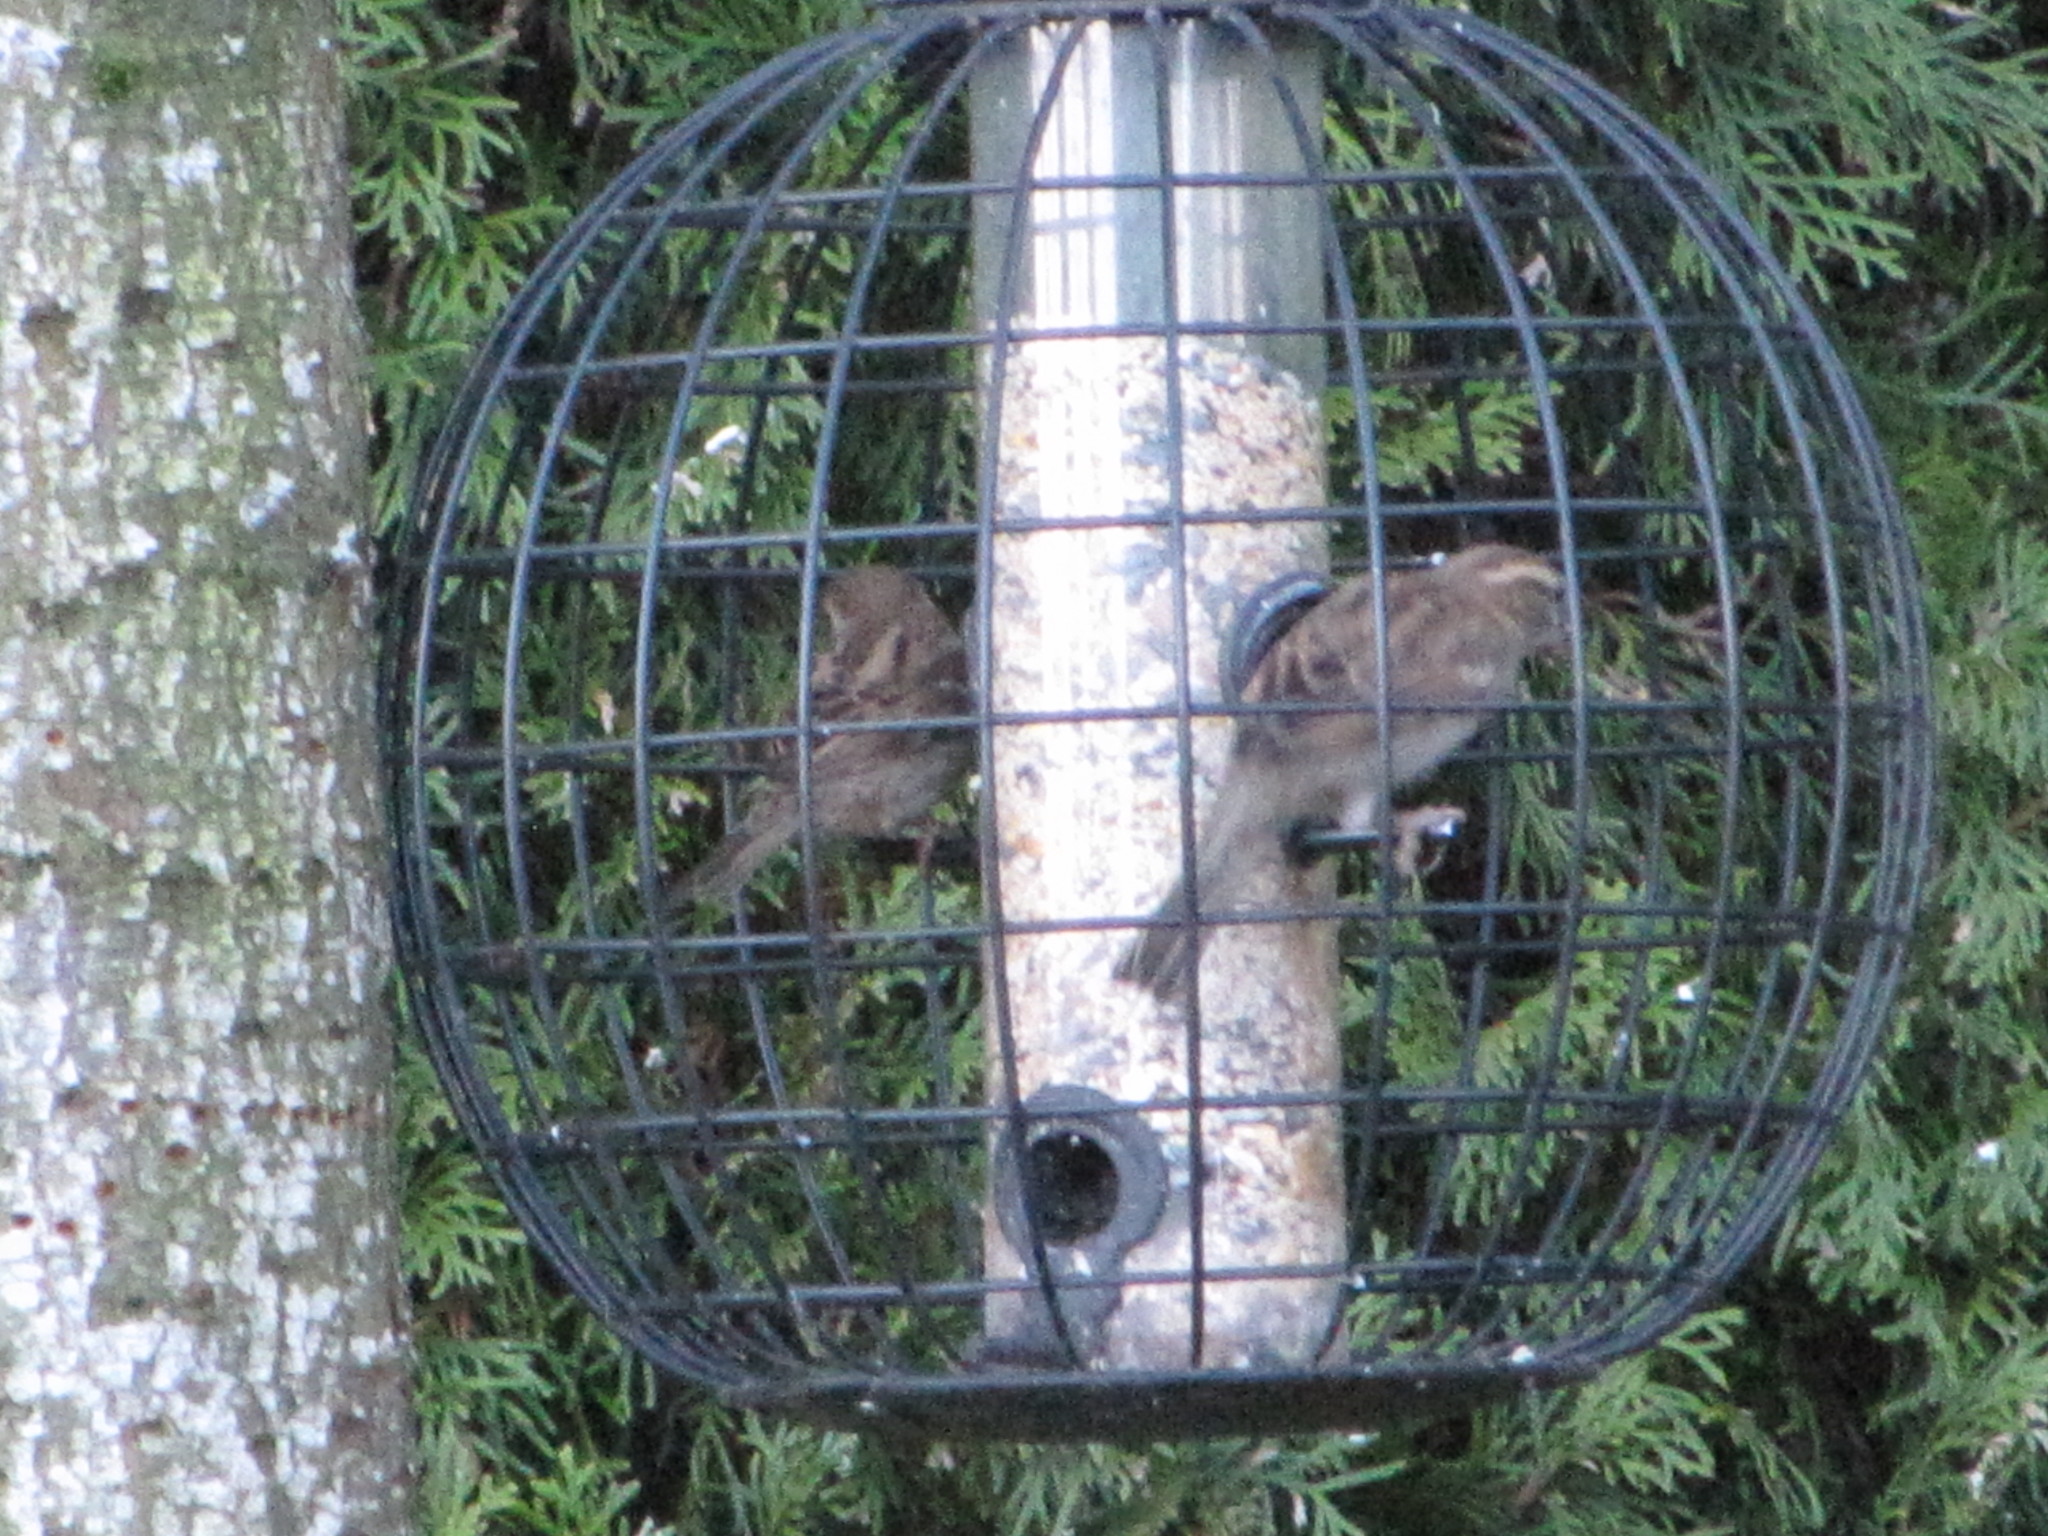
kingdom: Animalia
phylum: Chordata
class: Aves
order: Passeriformes
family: Passeridae
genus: Passer
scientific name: Passer domesticus
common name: House sparrow
